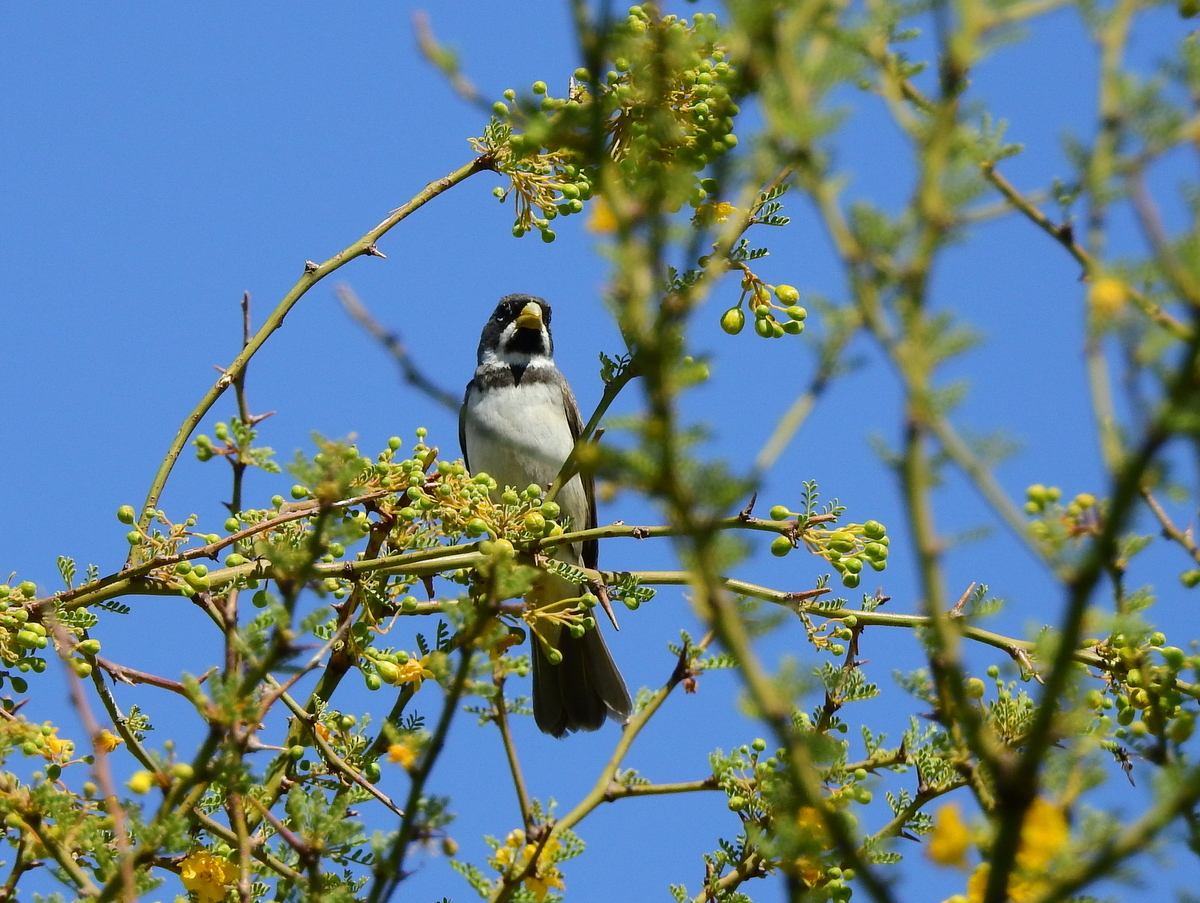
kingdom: Animalia
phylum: Chordata
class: Aves
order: Passeriformes
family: Thraupidae
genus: Sporophila
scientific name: Sporophila caerulescens
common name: Double-collared seedeater
